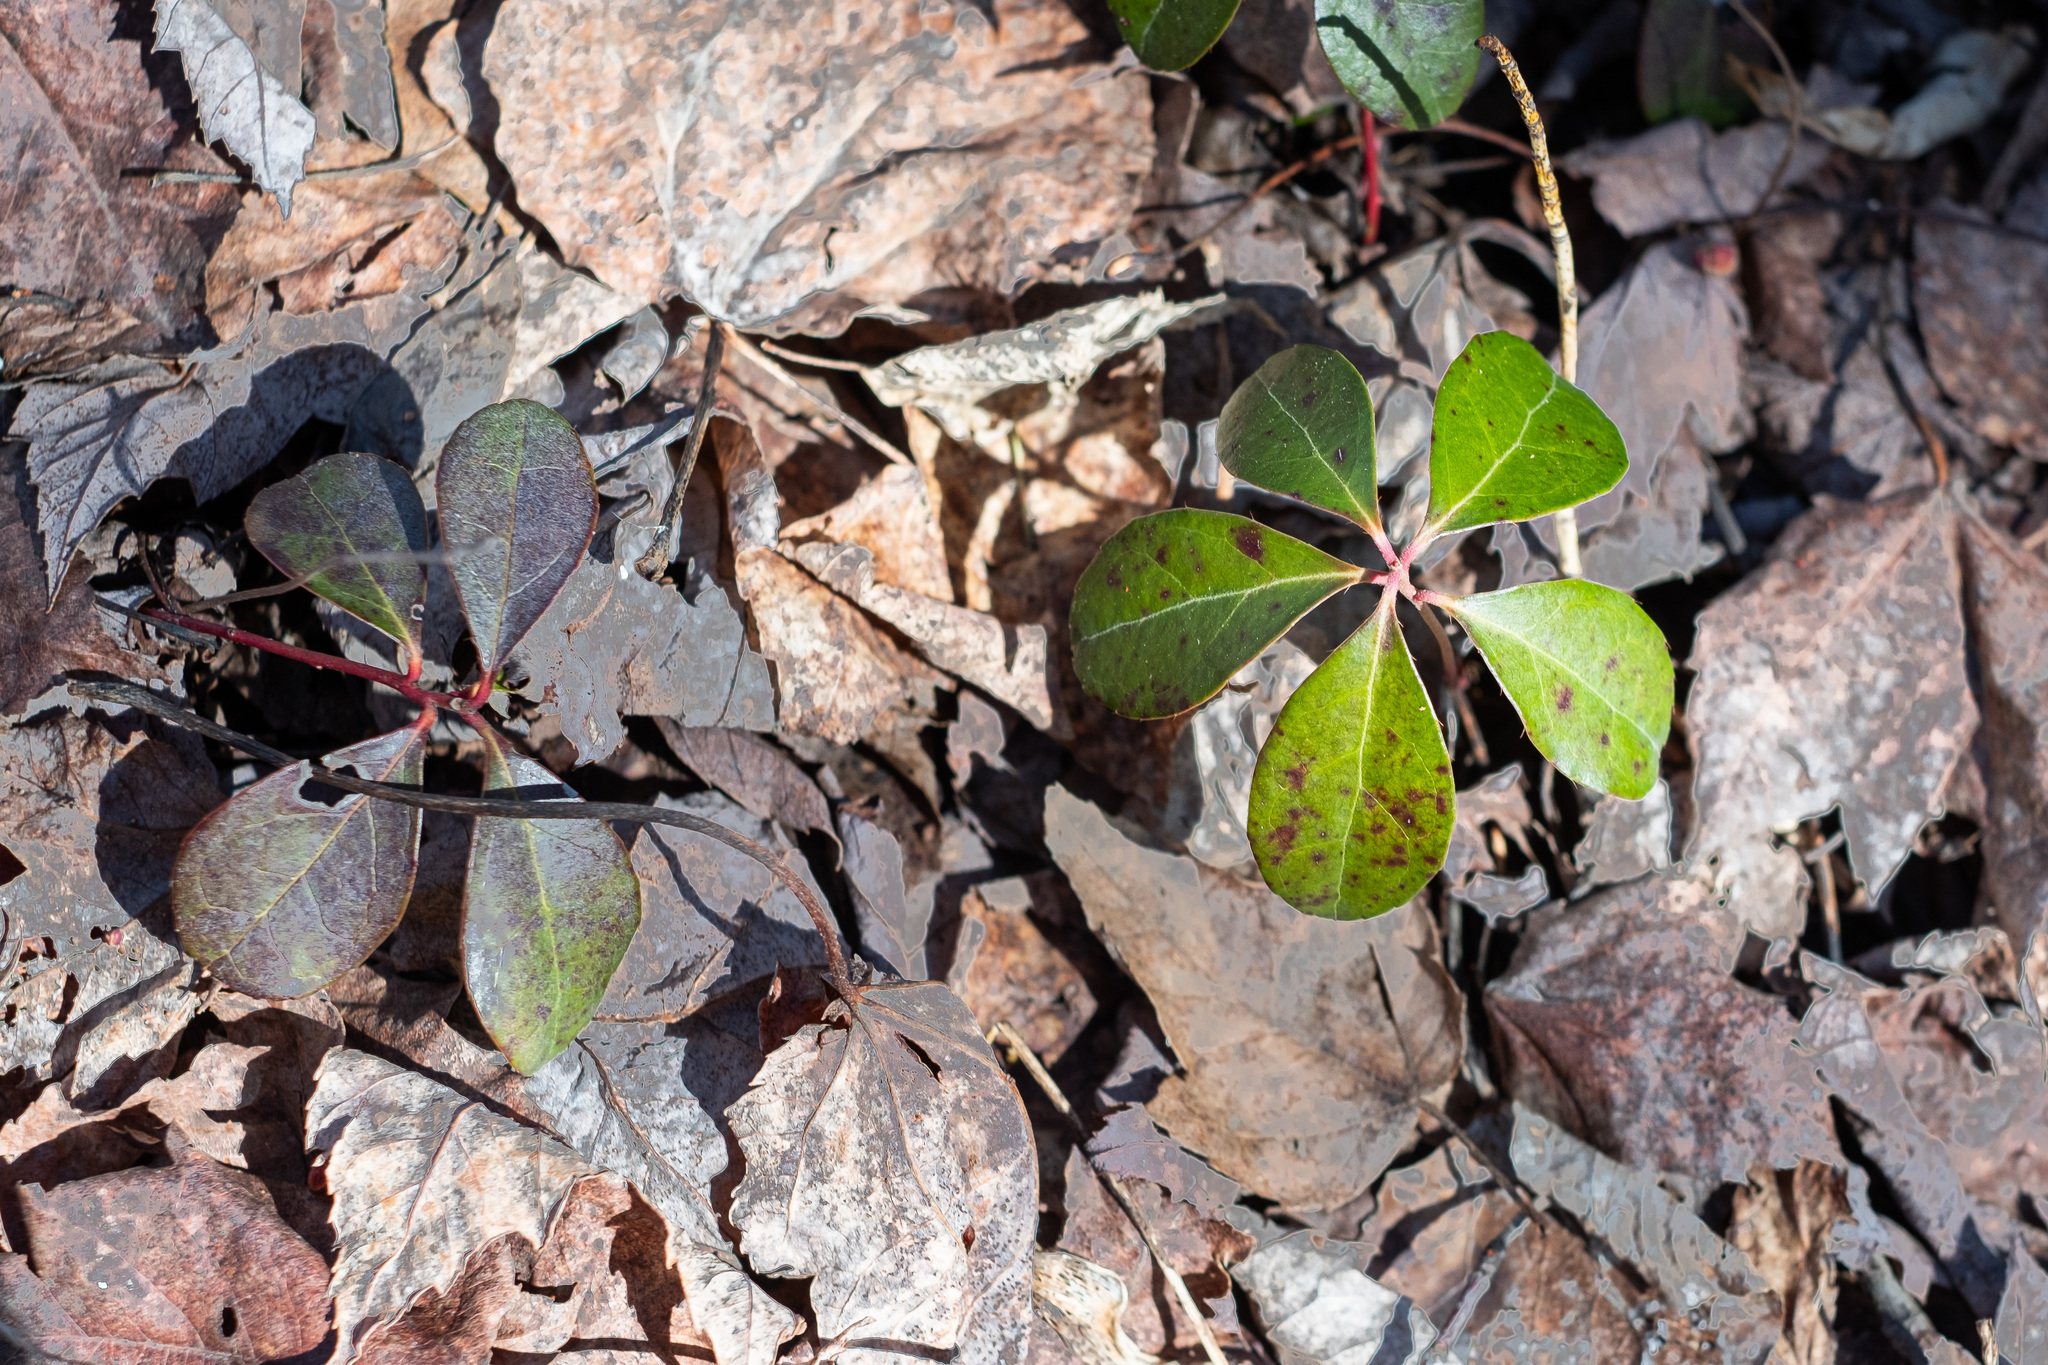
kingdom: Plantae
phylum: Tracheophyta
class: Magnoliopsida
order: Ericales
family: Ericaceae
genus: Gaultheria
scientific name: Gaultheria procumbens
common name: Checkerberry
